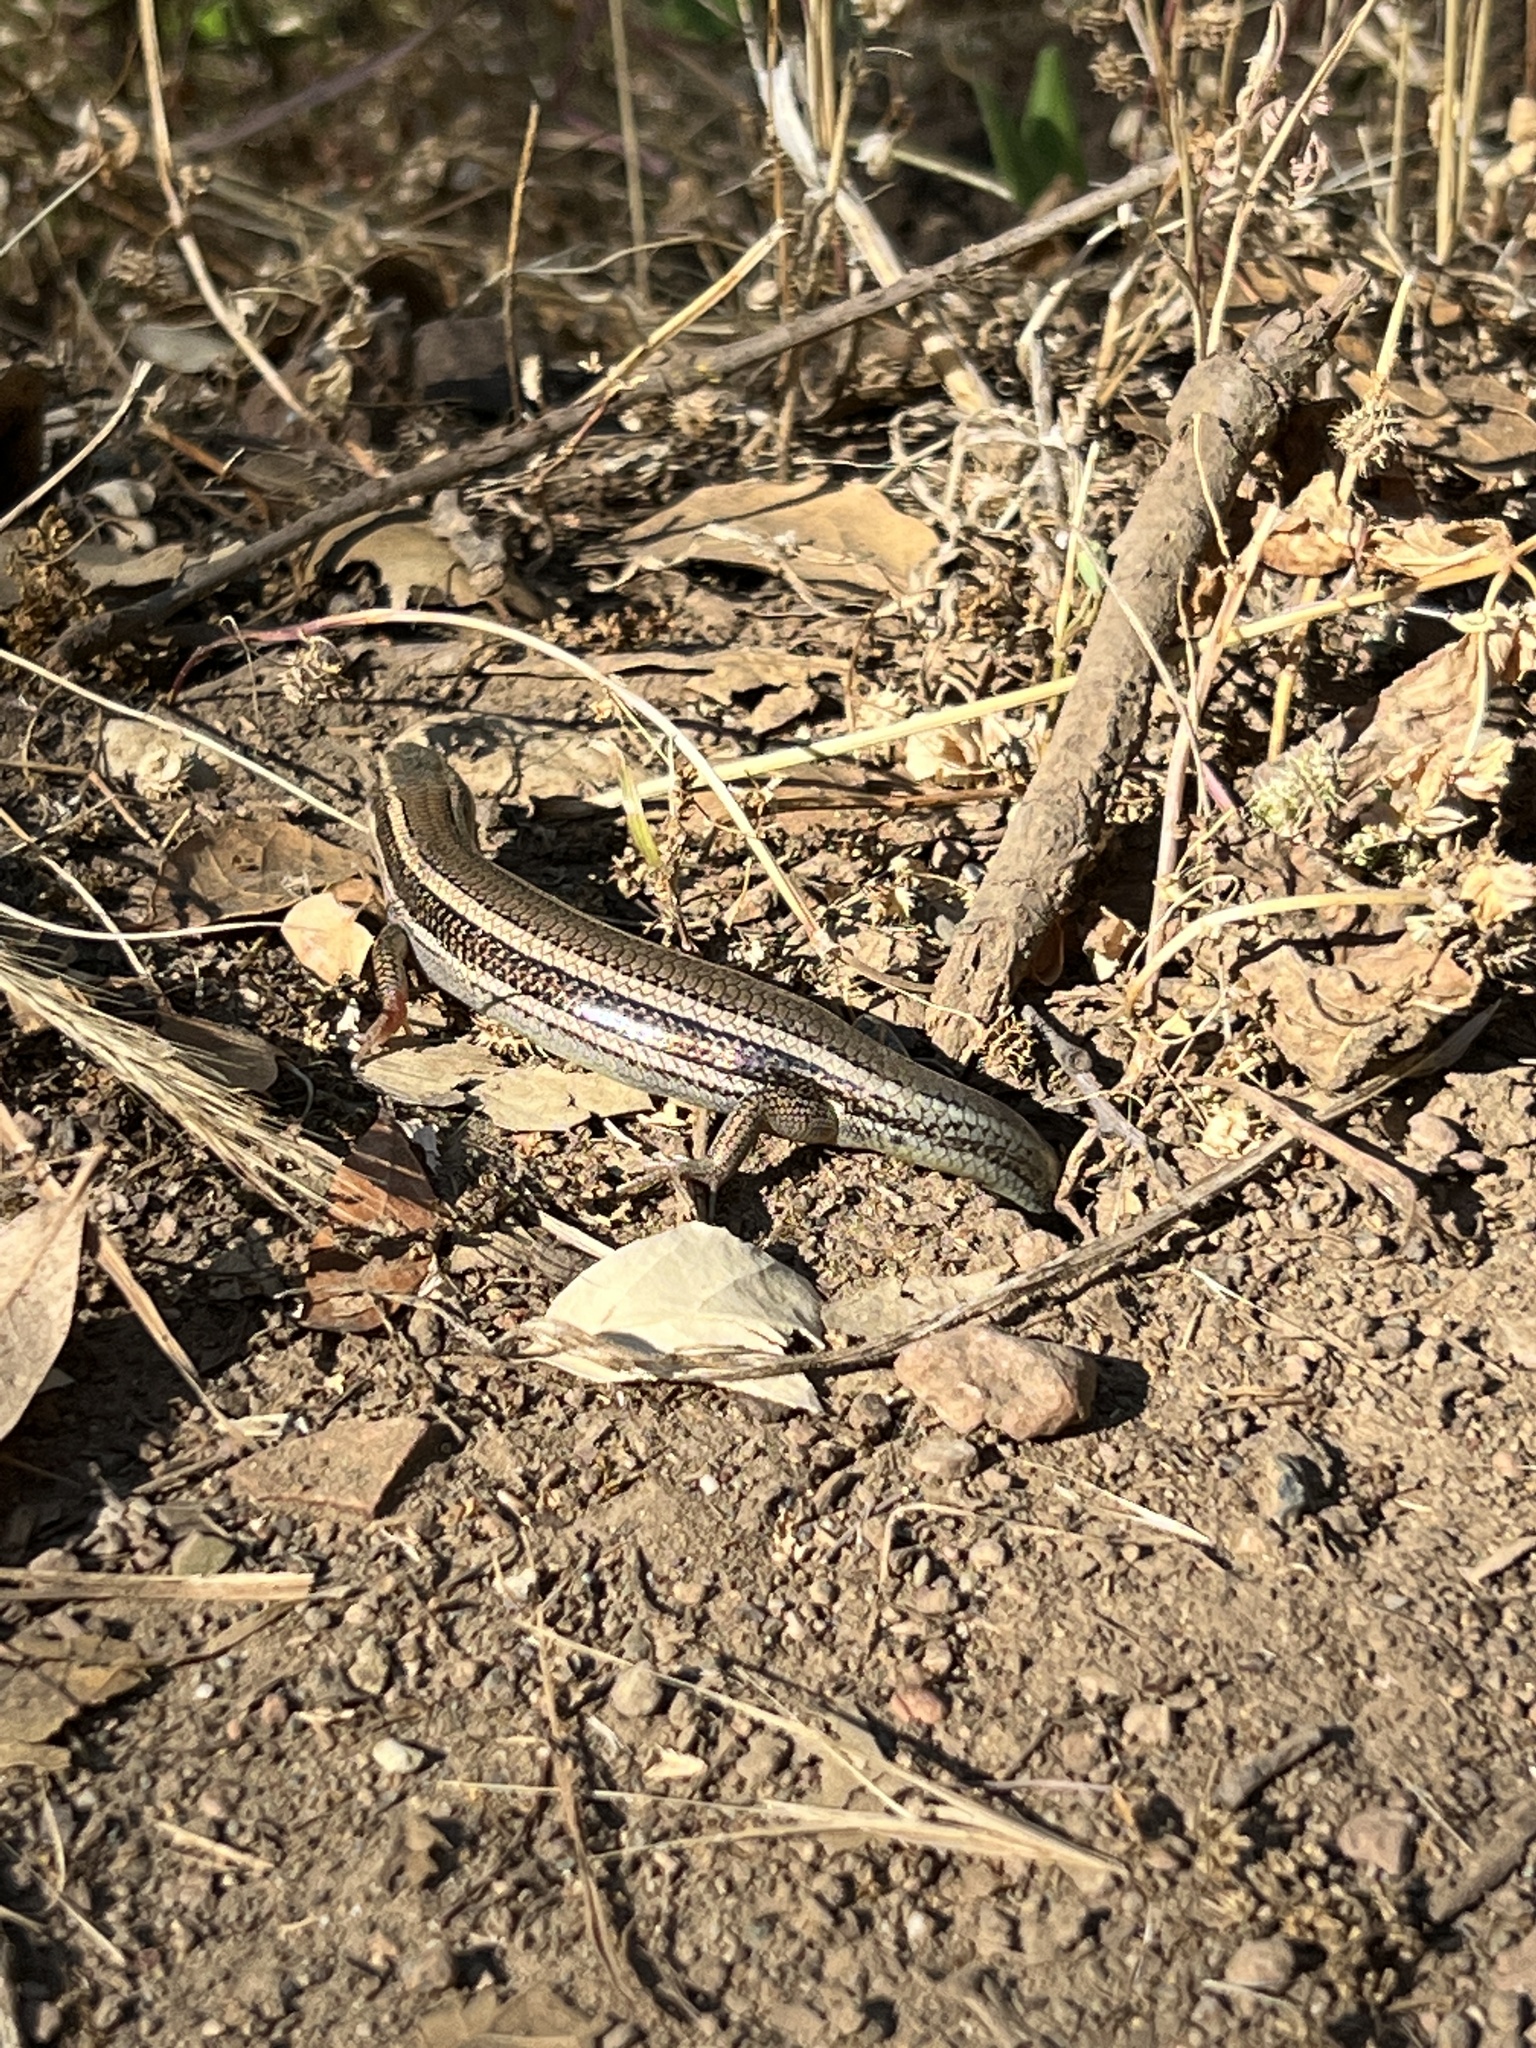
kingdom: Animalia
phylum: Chordata
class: Squamata
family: Scincidae
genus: Plestiodon
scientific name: Plestiodon skiltonianus
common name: Coronado island skink [interparietalis]
